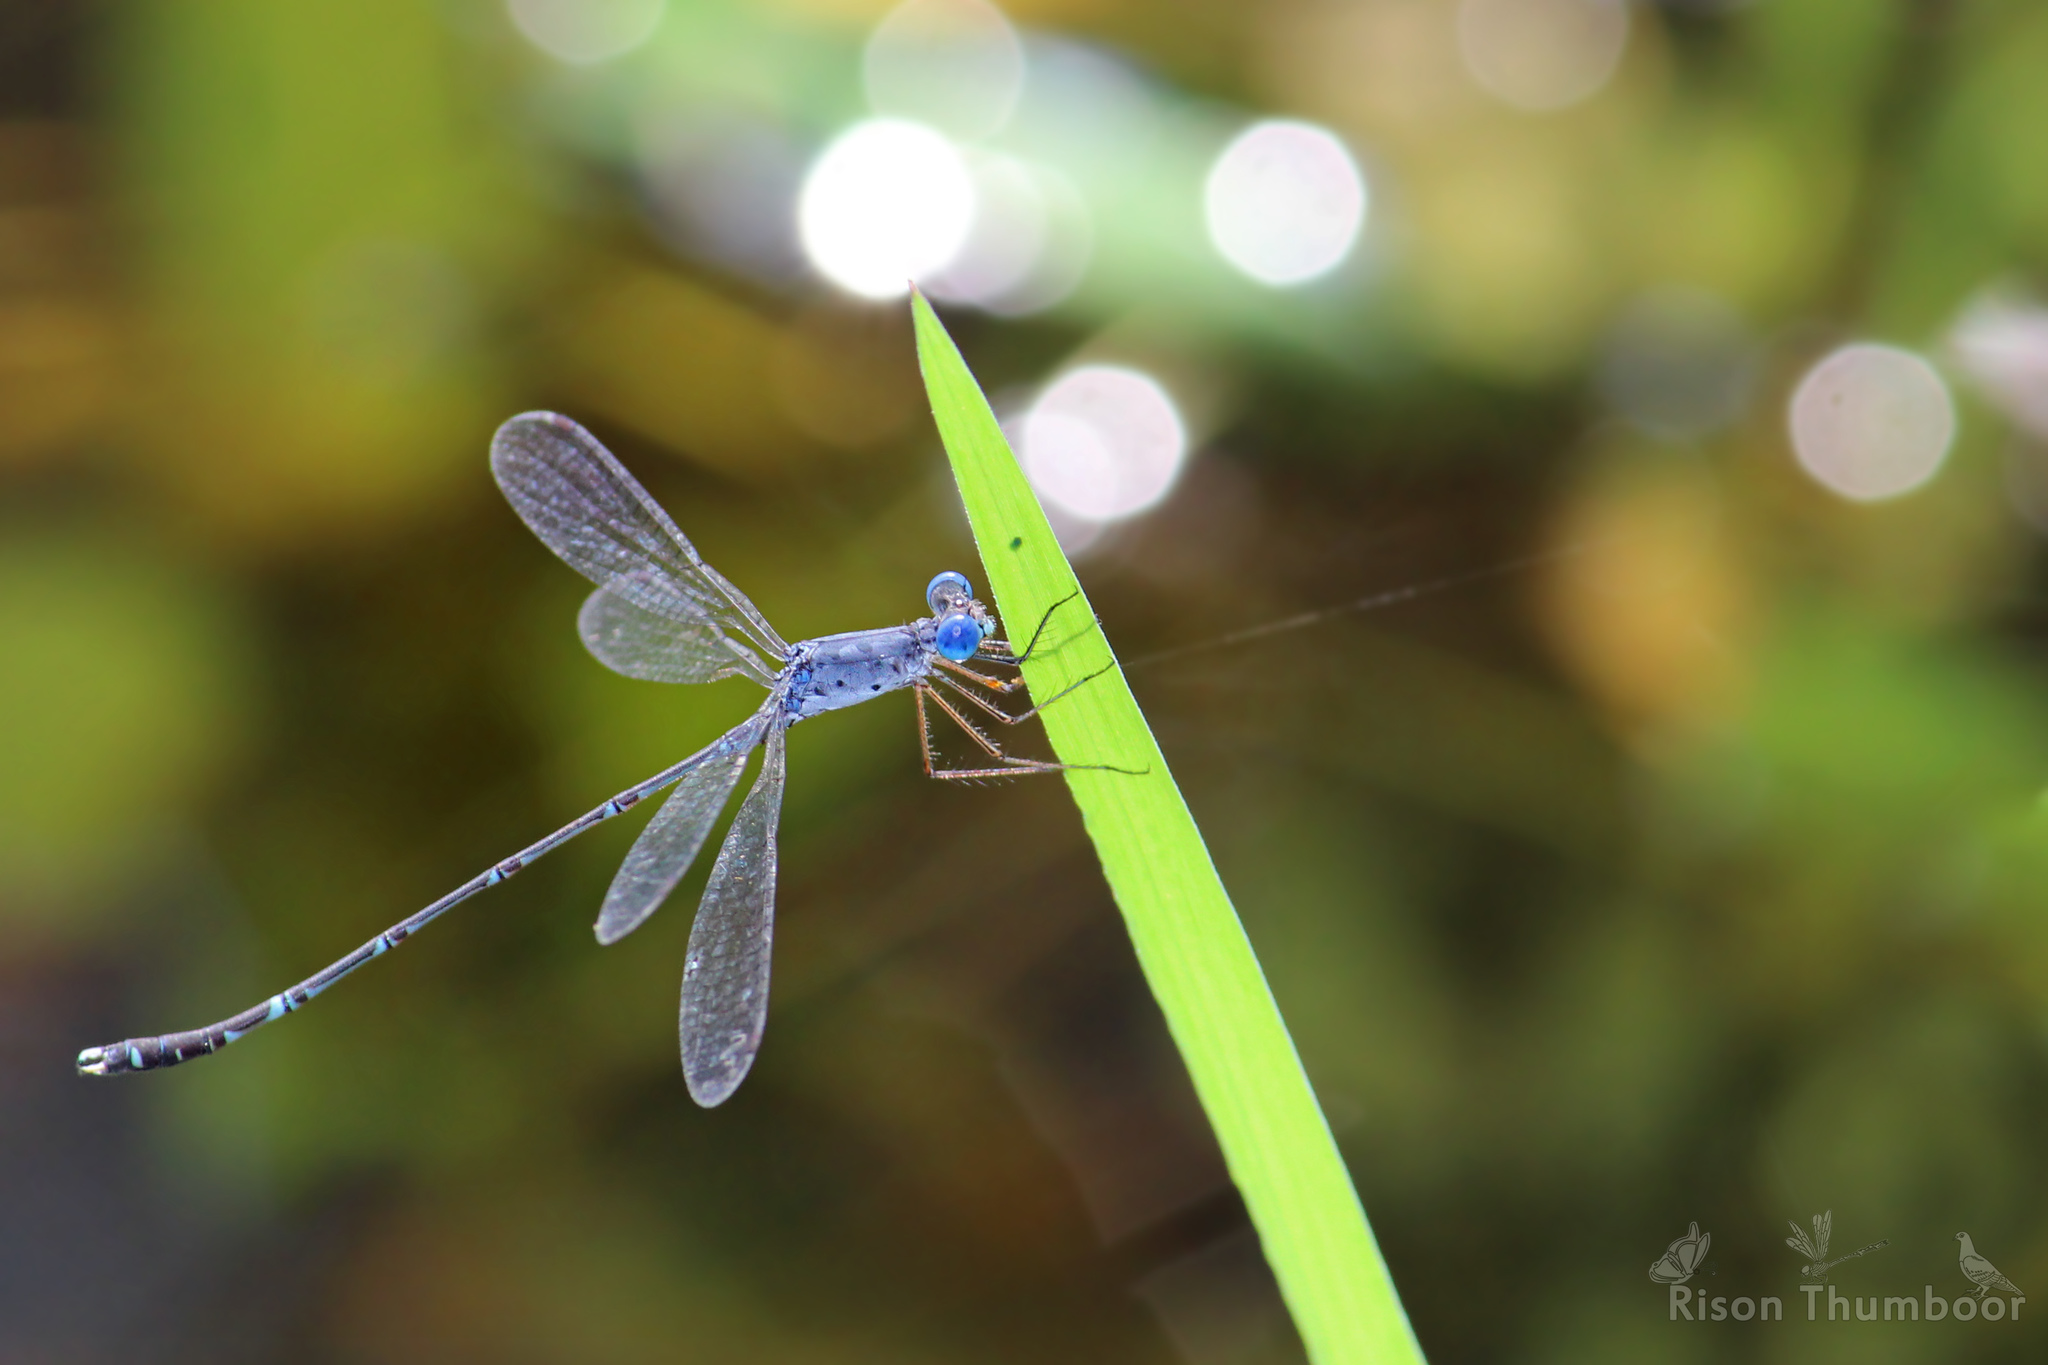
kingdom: Animalia
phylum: Arthropoda
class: Insecta
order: Odonata
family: Lestidae
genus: Lestes
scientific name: Lestes praemorsus
